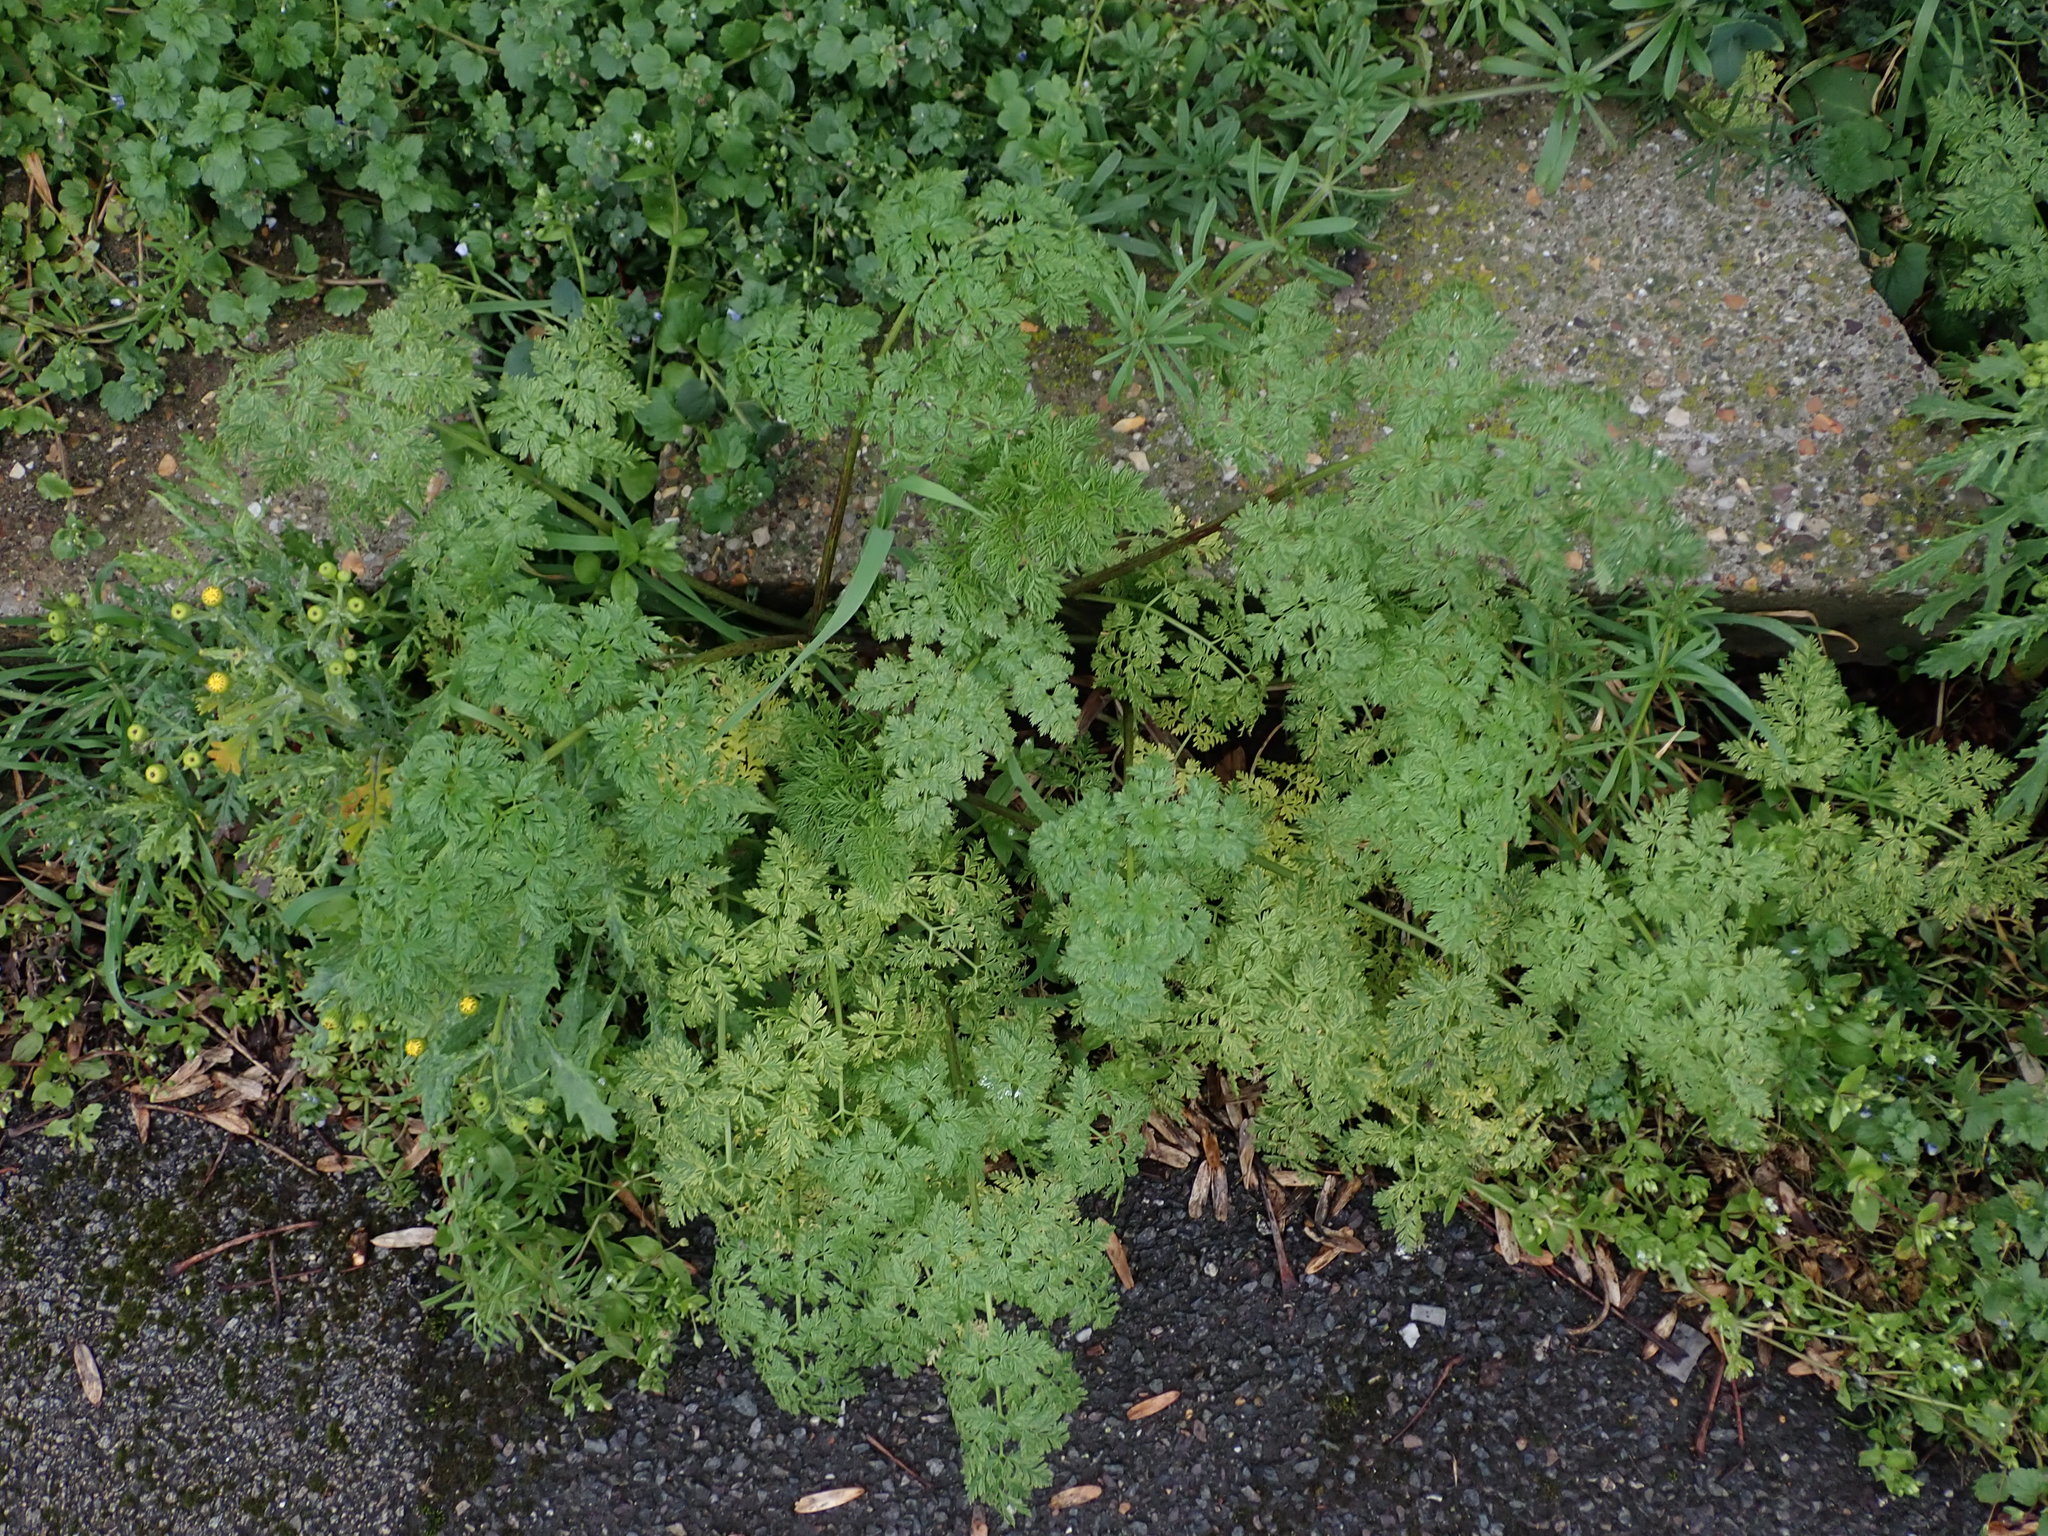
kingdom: Plantae
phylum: Tracheophyta
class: Magnoliopsida
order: Apiales
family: Apiaceae
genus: Conium
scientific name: Conium maculatum
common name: Hemlock
